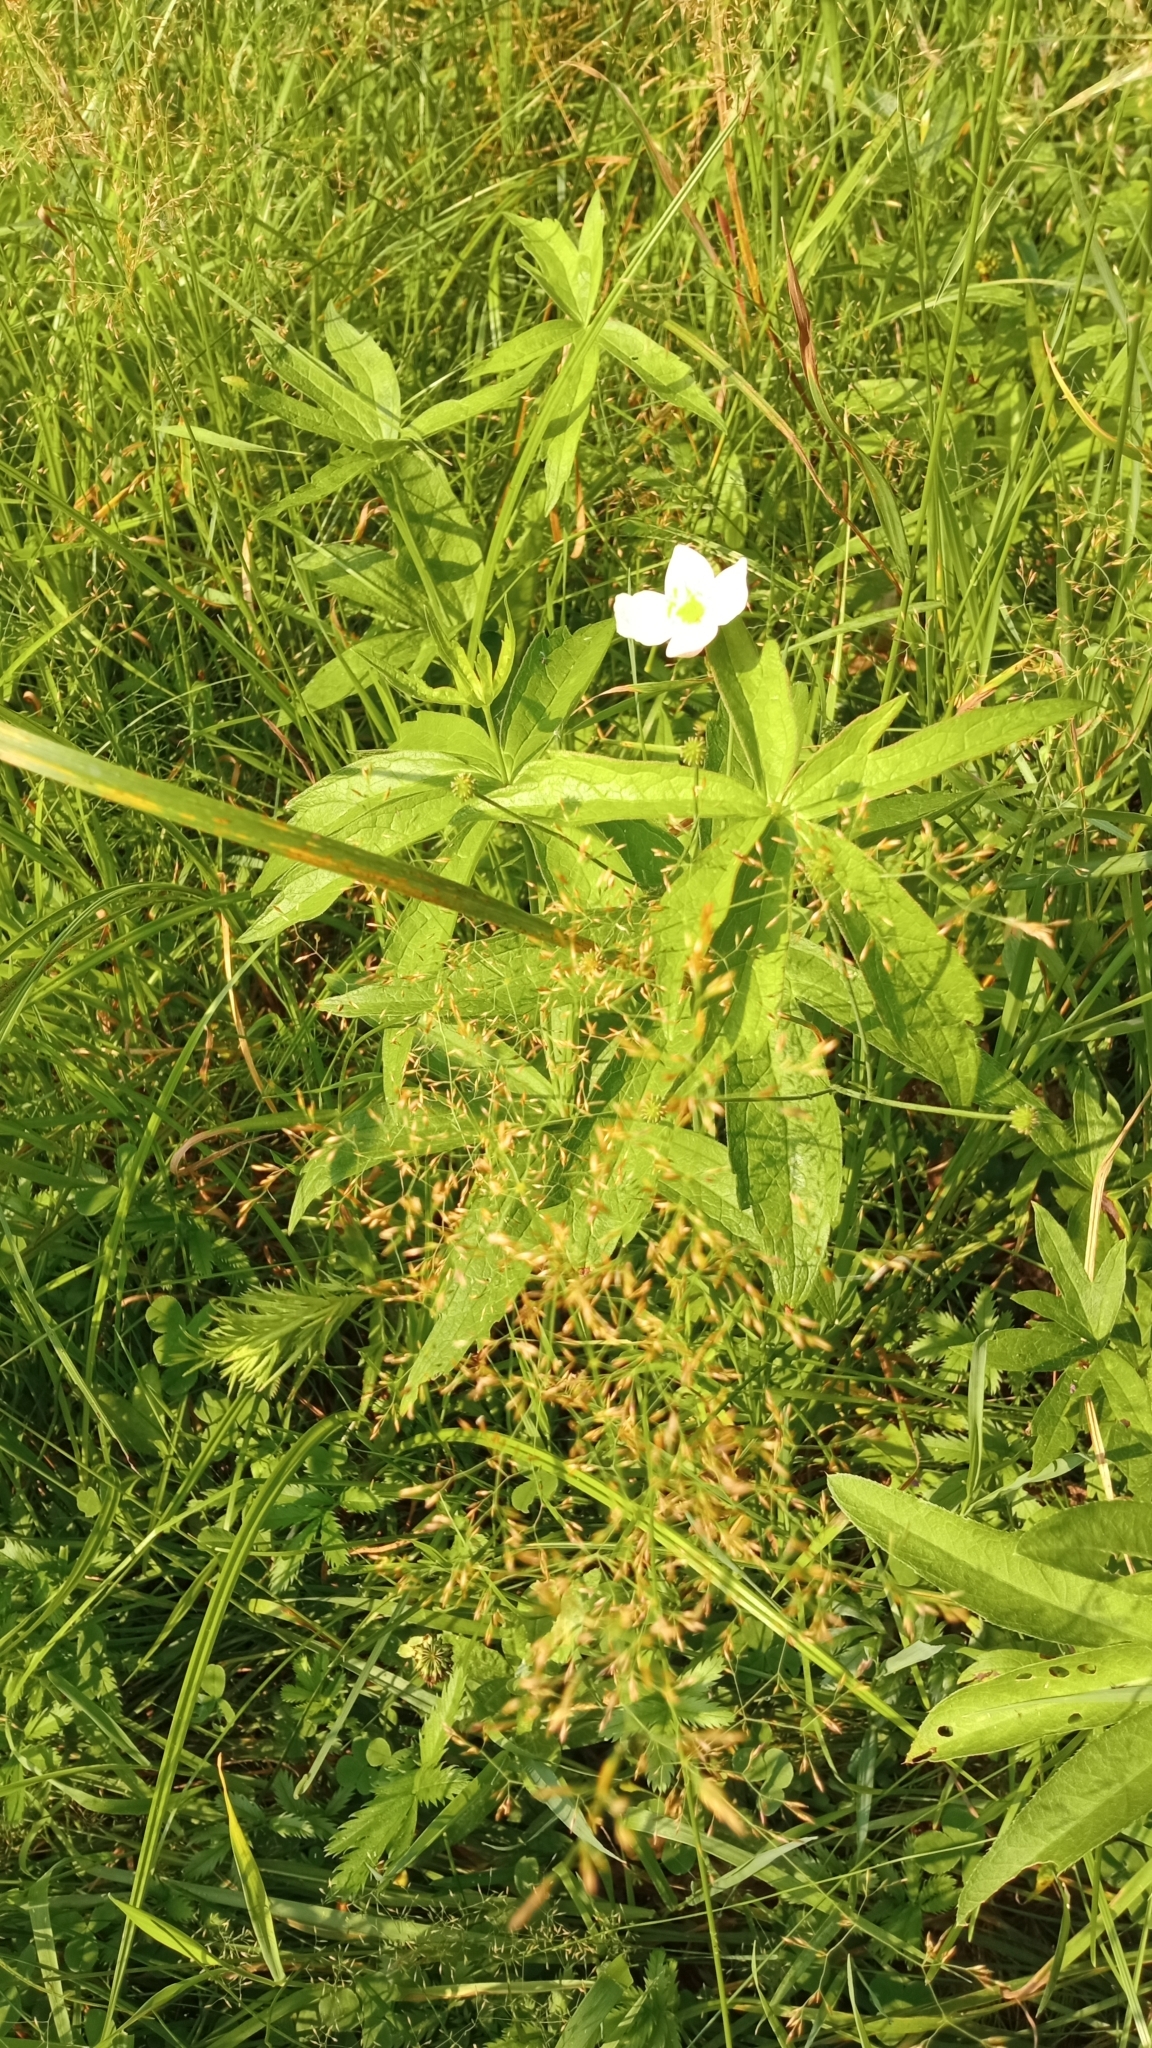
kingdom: Plantae
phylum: Tracheophyta
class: Magnoliopsida
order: Ranunculales
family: Ranunculaceae
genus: Anemonastrum
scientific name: Anemonastrum dichotomum
